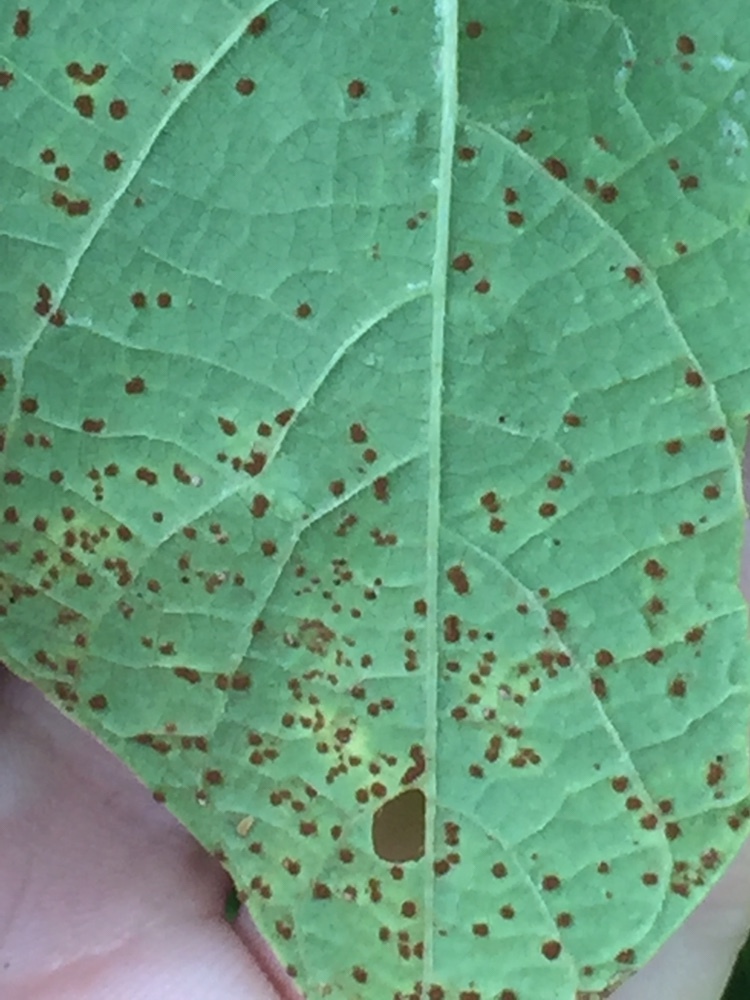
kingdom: Fungi
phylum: Basidiomycota
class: Pucciniomycetes
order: Pucciniales
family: Pucciniaceae
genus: Uromyces
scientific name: Uromyces appendiculatus
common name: Runner bean rust
